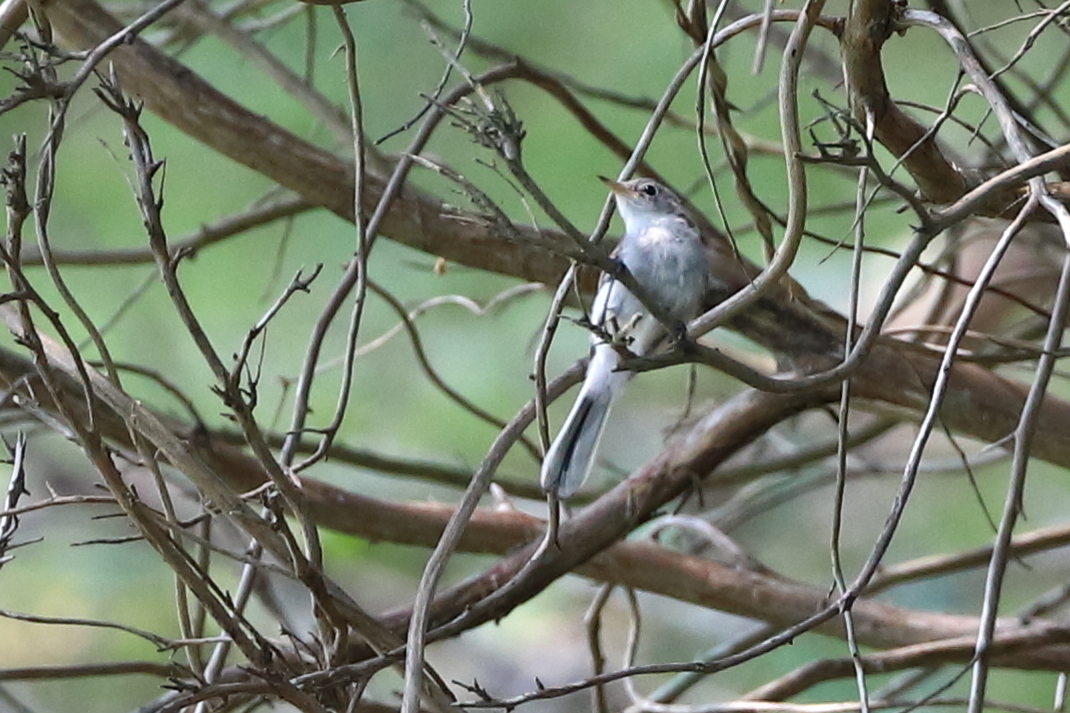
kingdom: Animalia
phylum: Chordata
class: Aves
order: Passeriformes
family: Polioptilidae
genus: Polioptila
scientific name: Polioptila caerulea
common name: Blue-gray gnatcatcher
